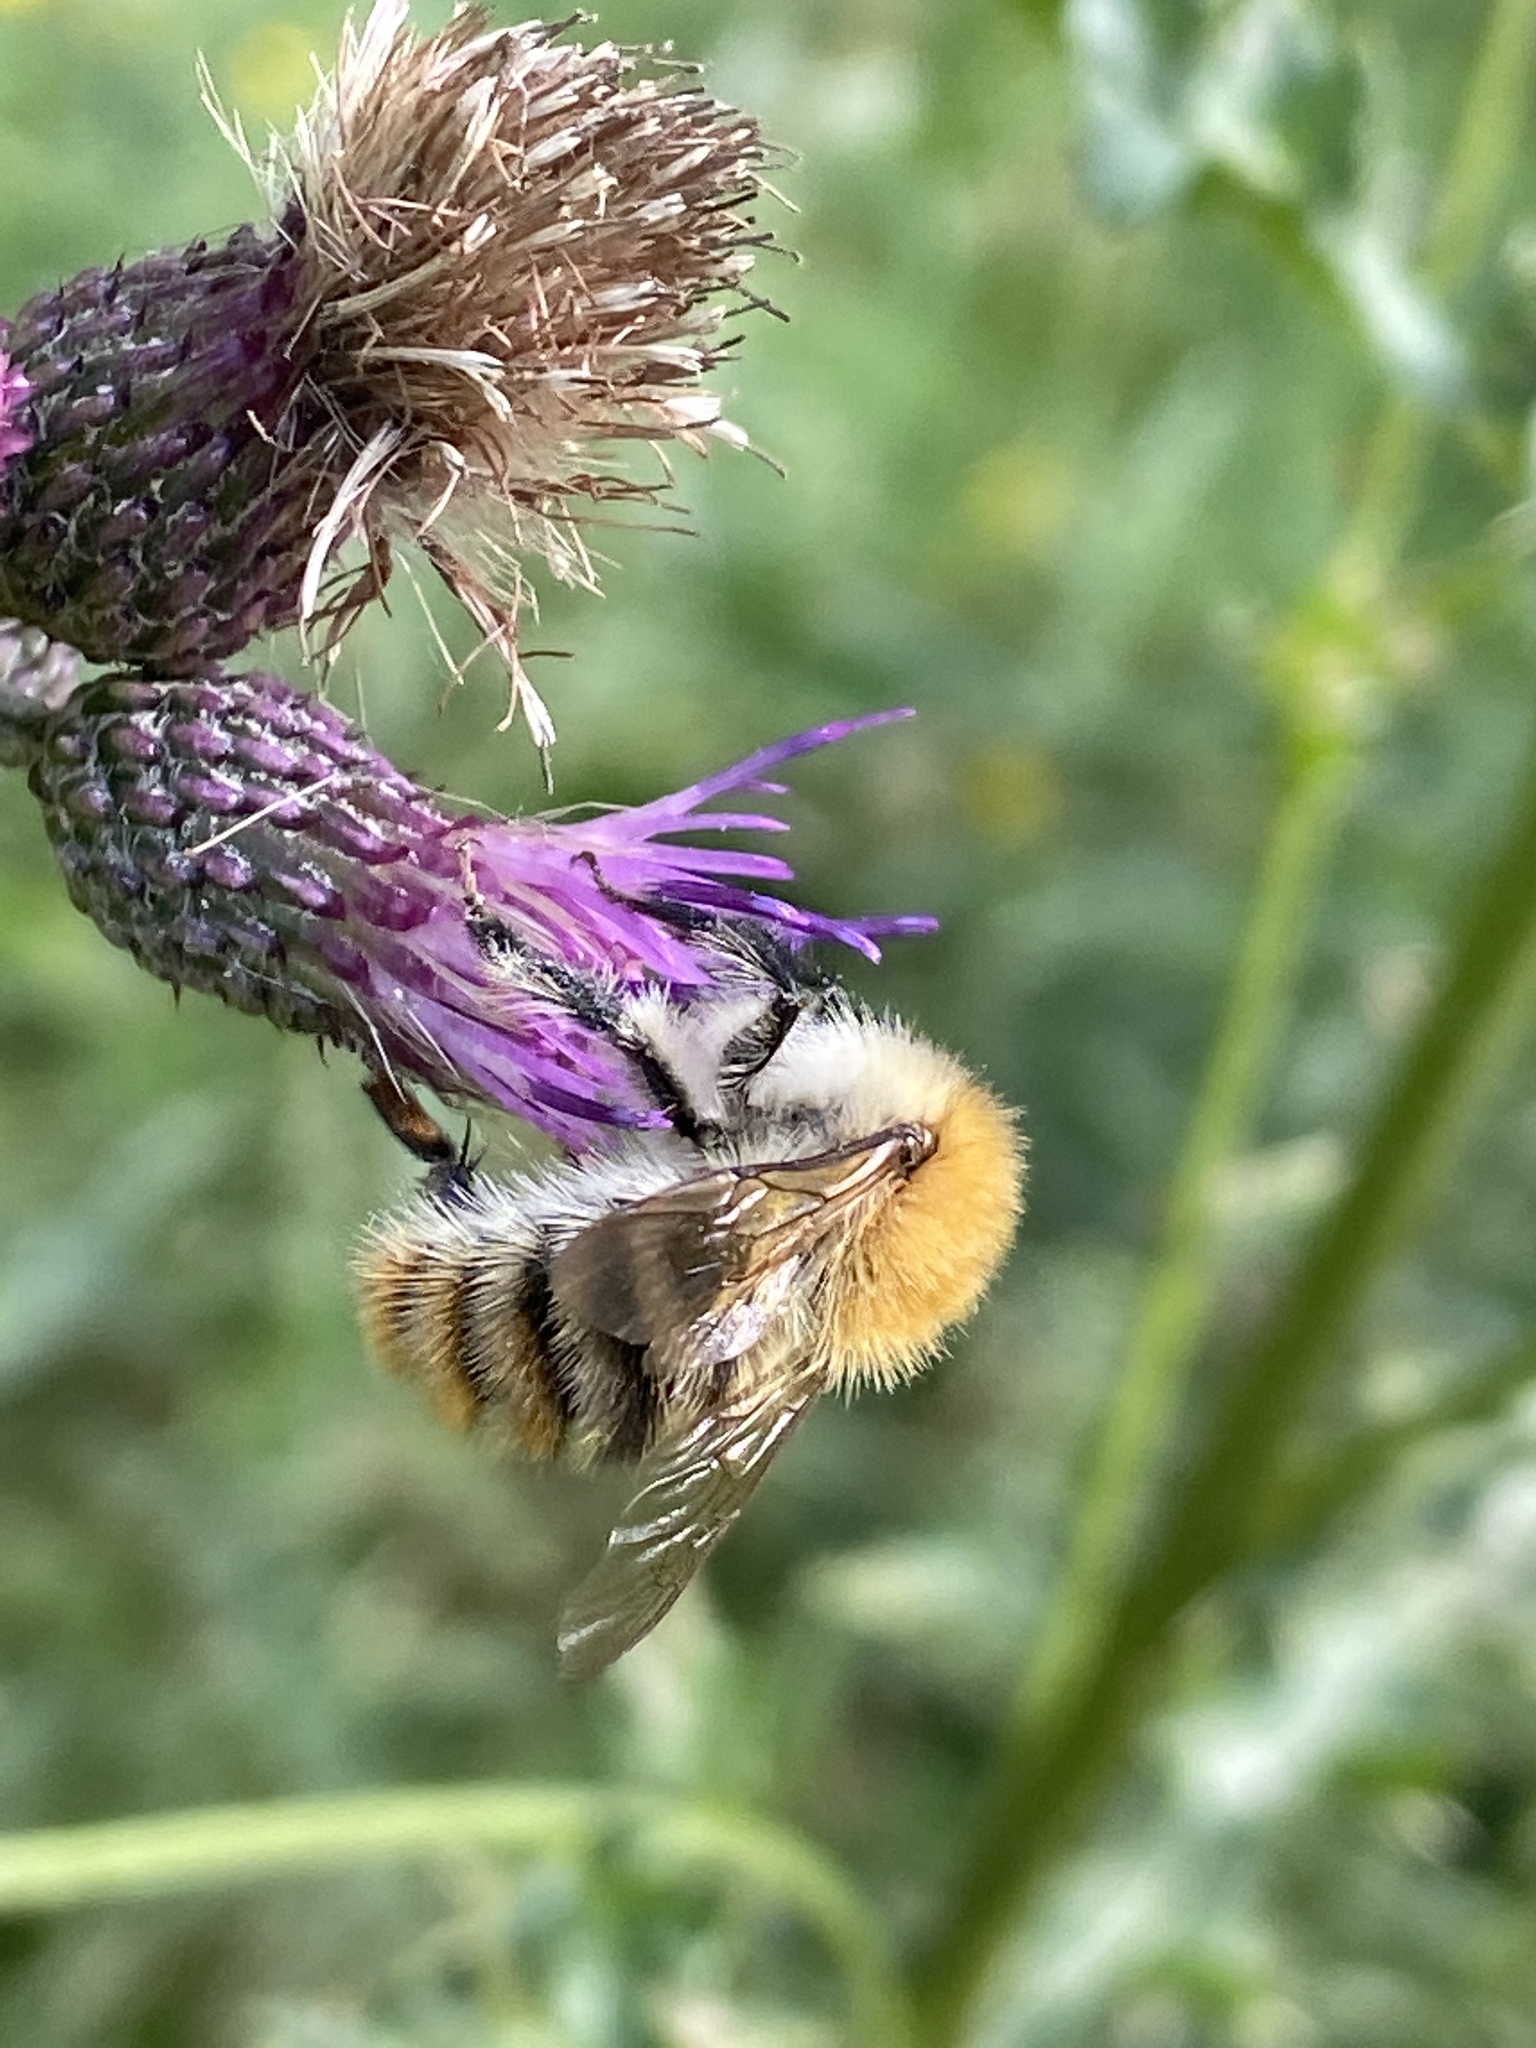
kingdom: Animalia
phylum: Arthropoda
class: Insecta
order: Hymenoptera
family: Apidae
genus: Bombus
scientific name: Bombus pascuorum
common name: Common carder bee
